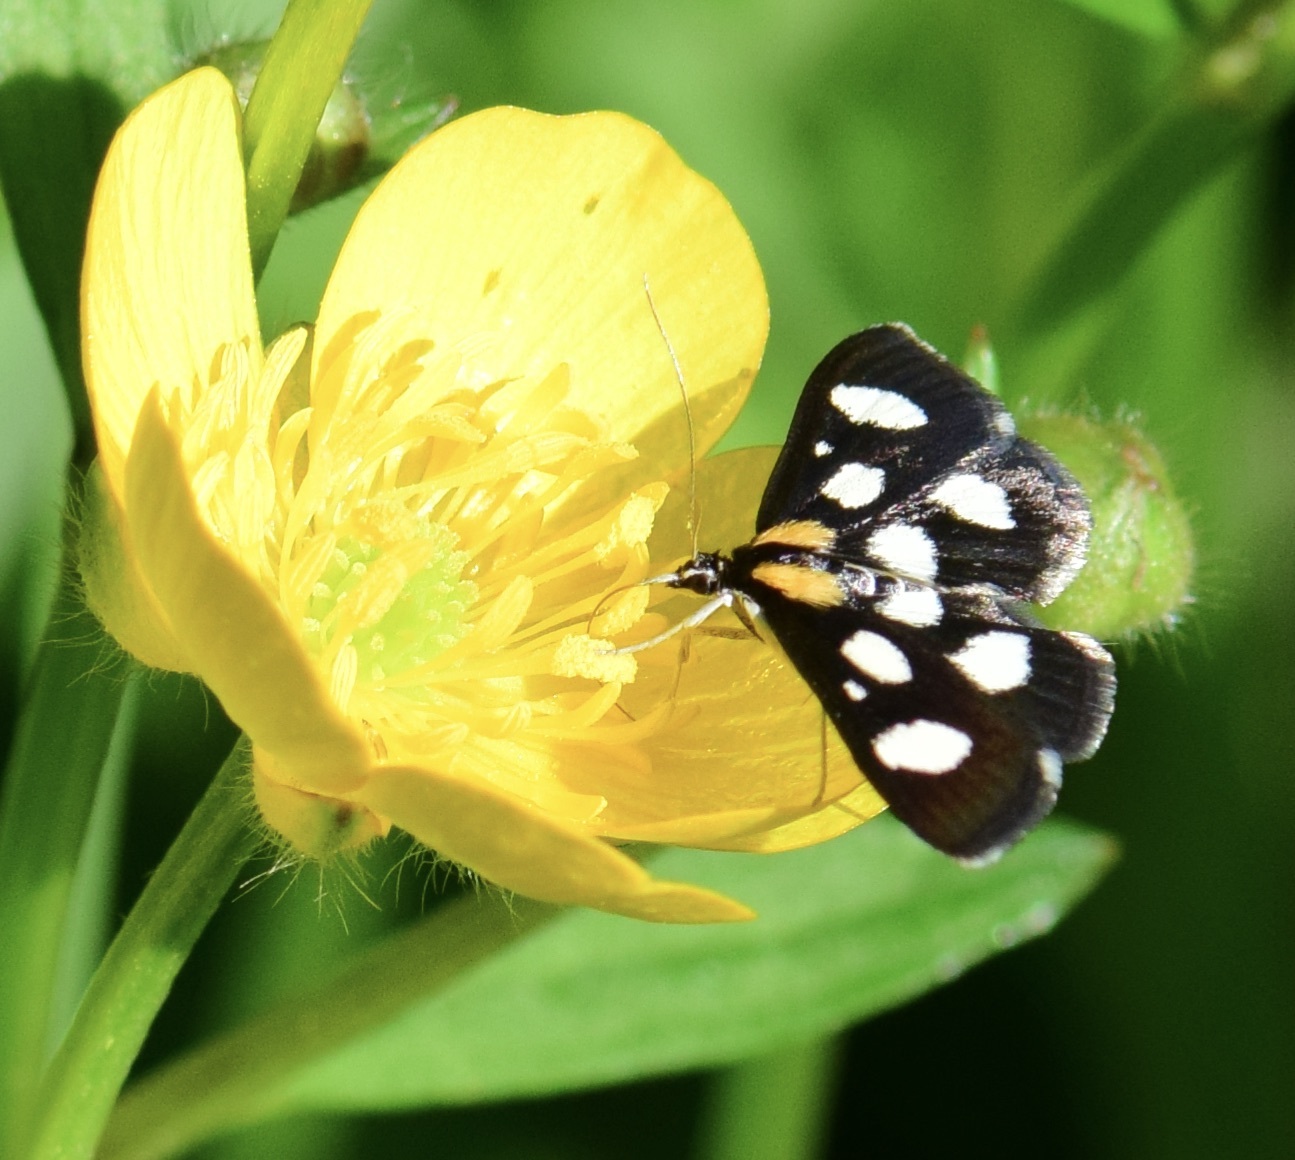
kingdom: Animalia
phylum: Arthropoda
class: Insecta
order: Lepidoptera
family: Crambidae
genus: Anania
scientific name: Anania funebris
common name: White-spotted sable moth
